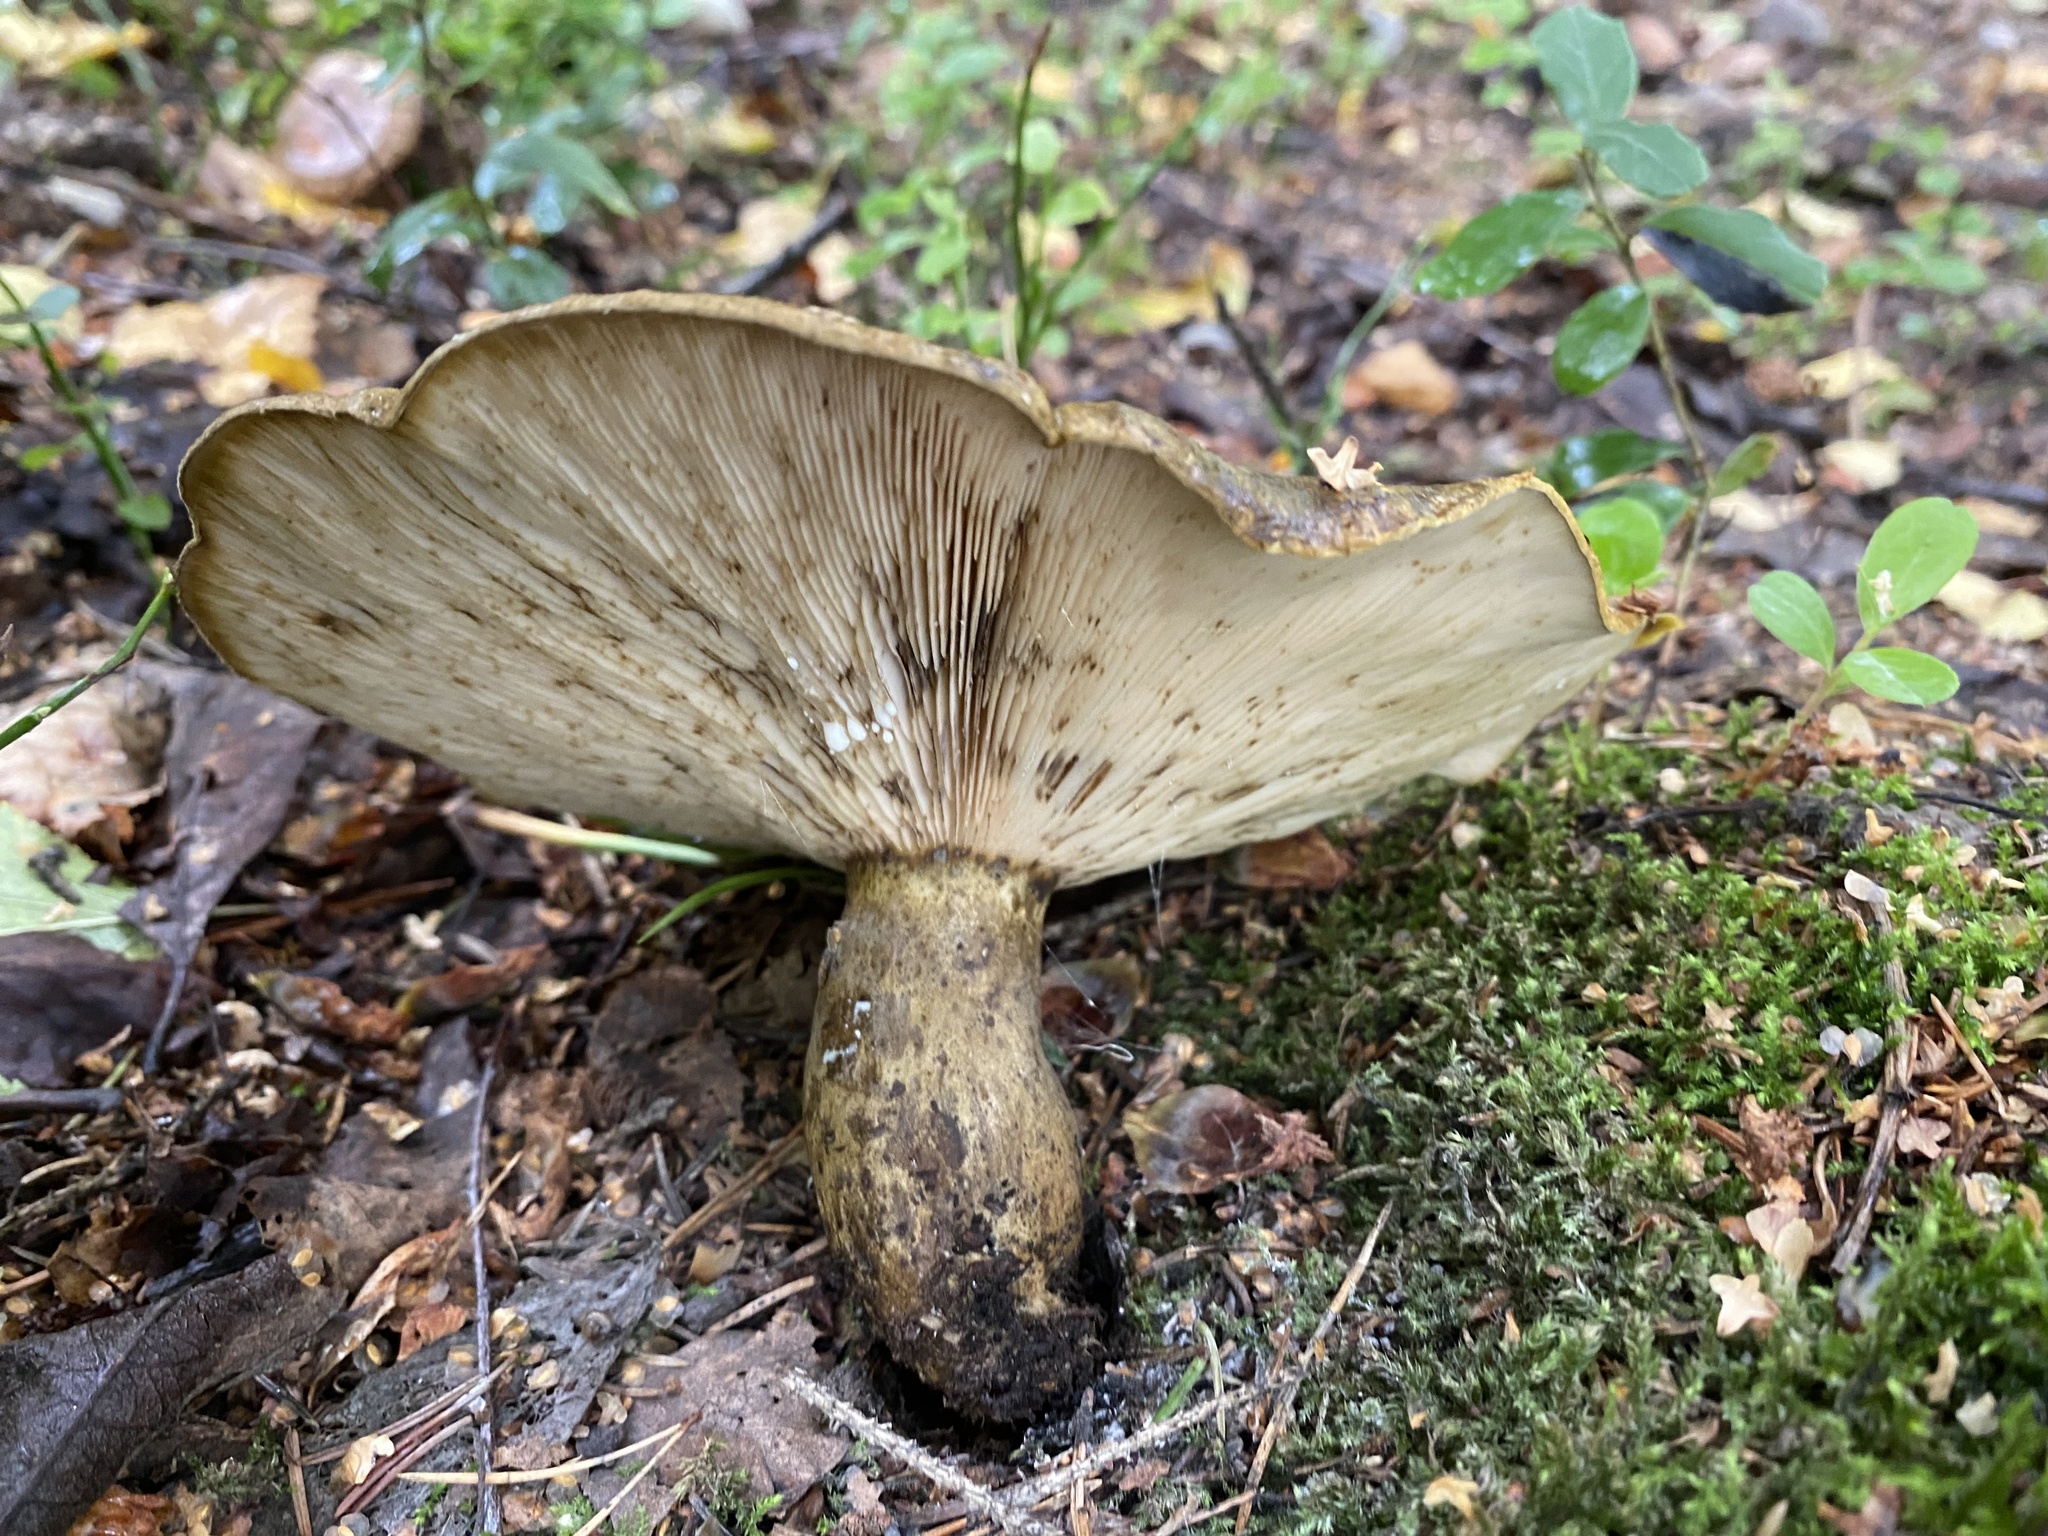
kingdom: Fungi
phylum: Basidiomycota
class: Agaricomycetes
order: Russulales
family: Russulaceae
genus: Lactarius
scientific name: Lactarius turpis
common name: Ugly milk-cap
